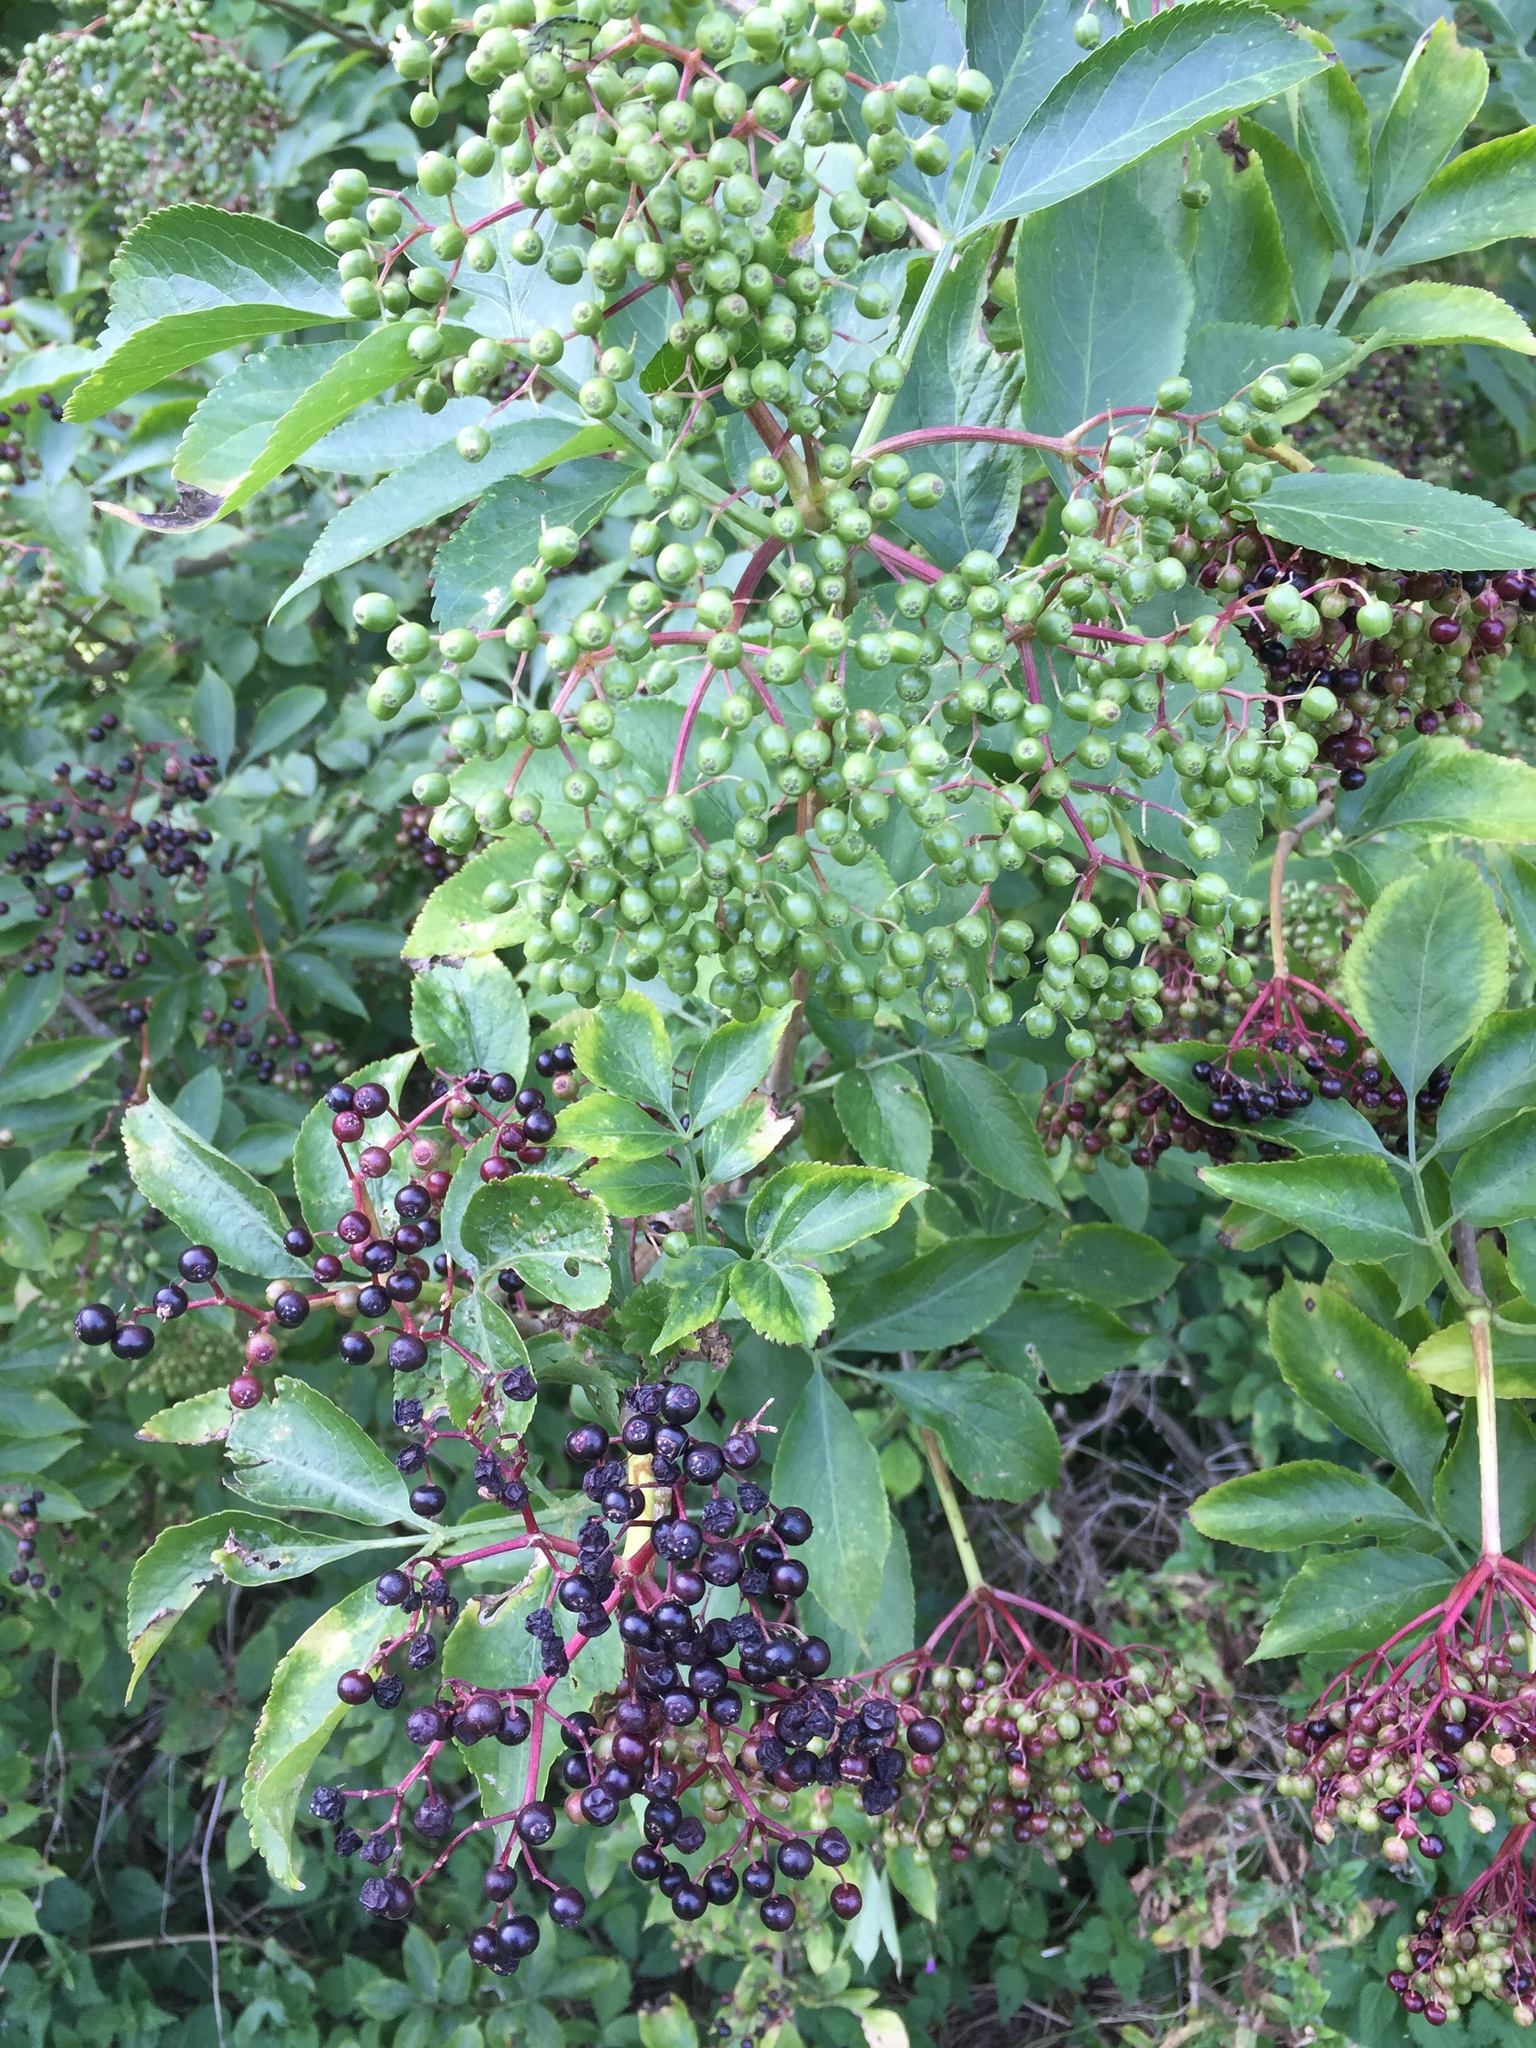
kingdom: Plantae
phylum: Tracheophyta
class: Magnoliopsida
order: Dipsacales
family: Viburnaceae
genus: Sambucus
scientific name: Sambucus nigra
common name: Elder
